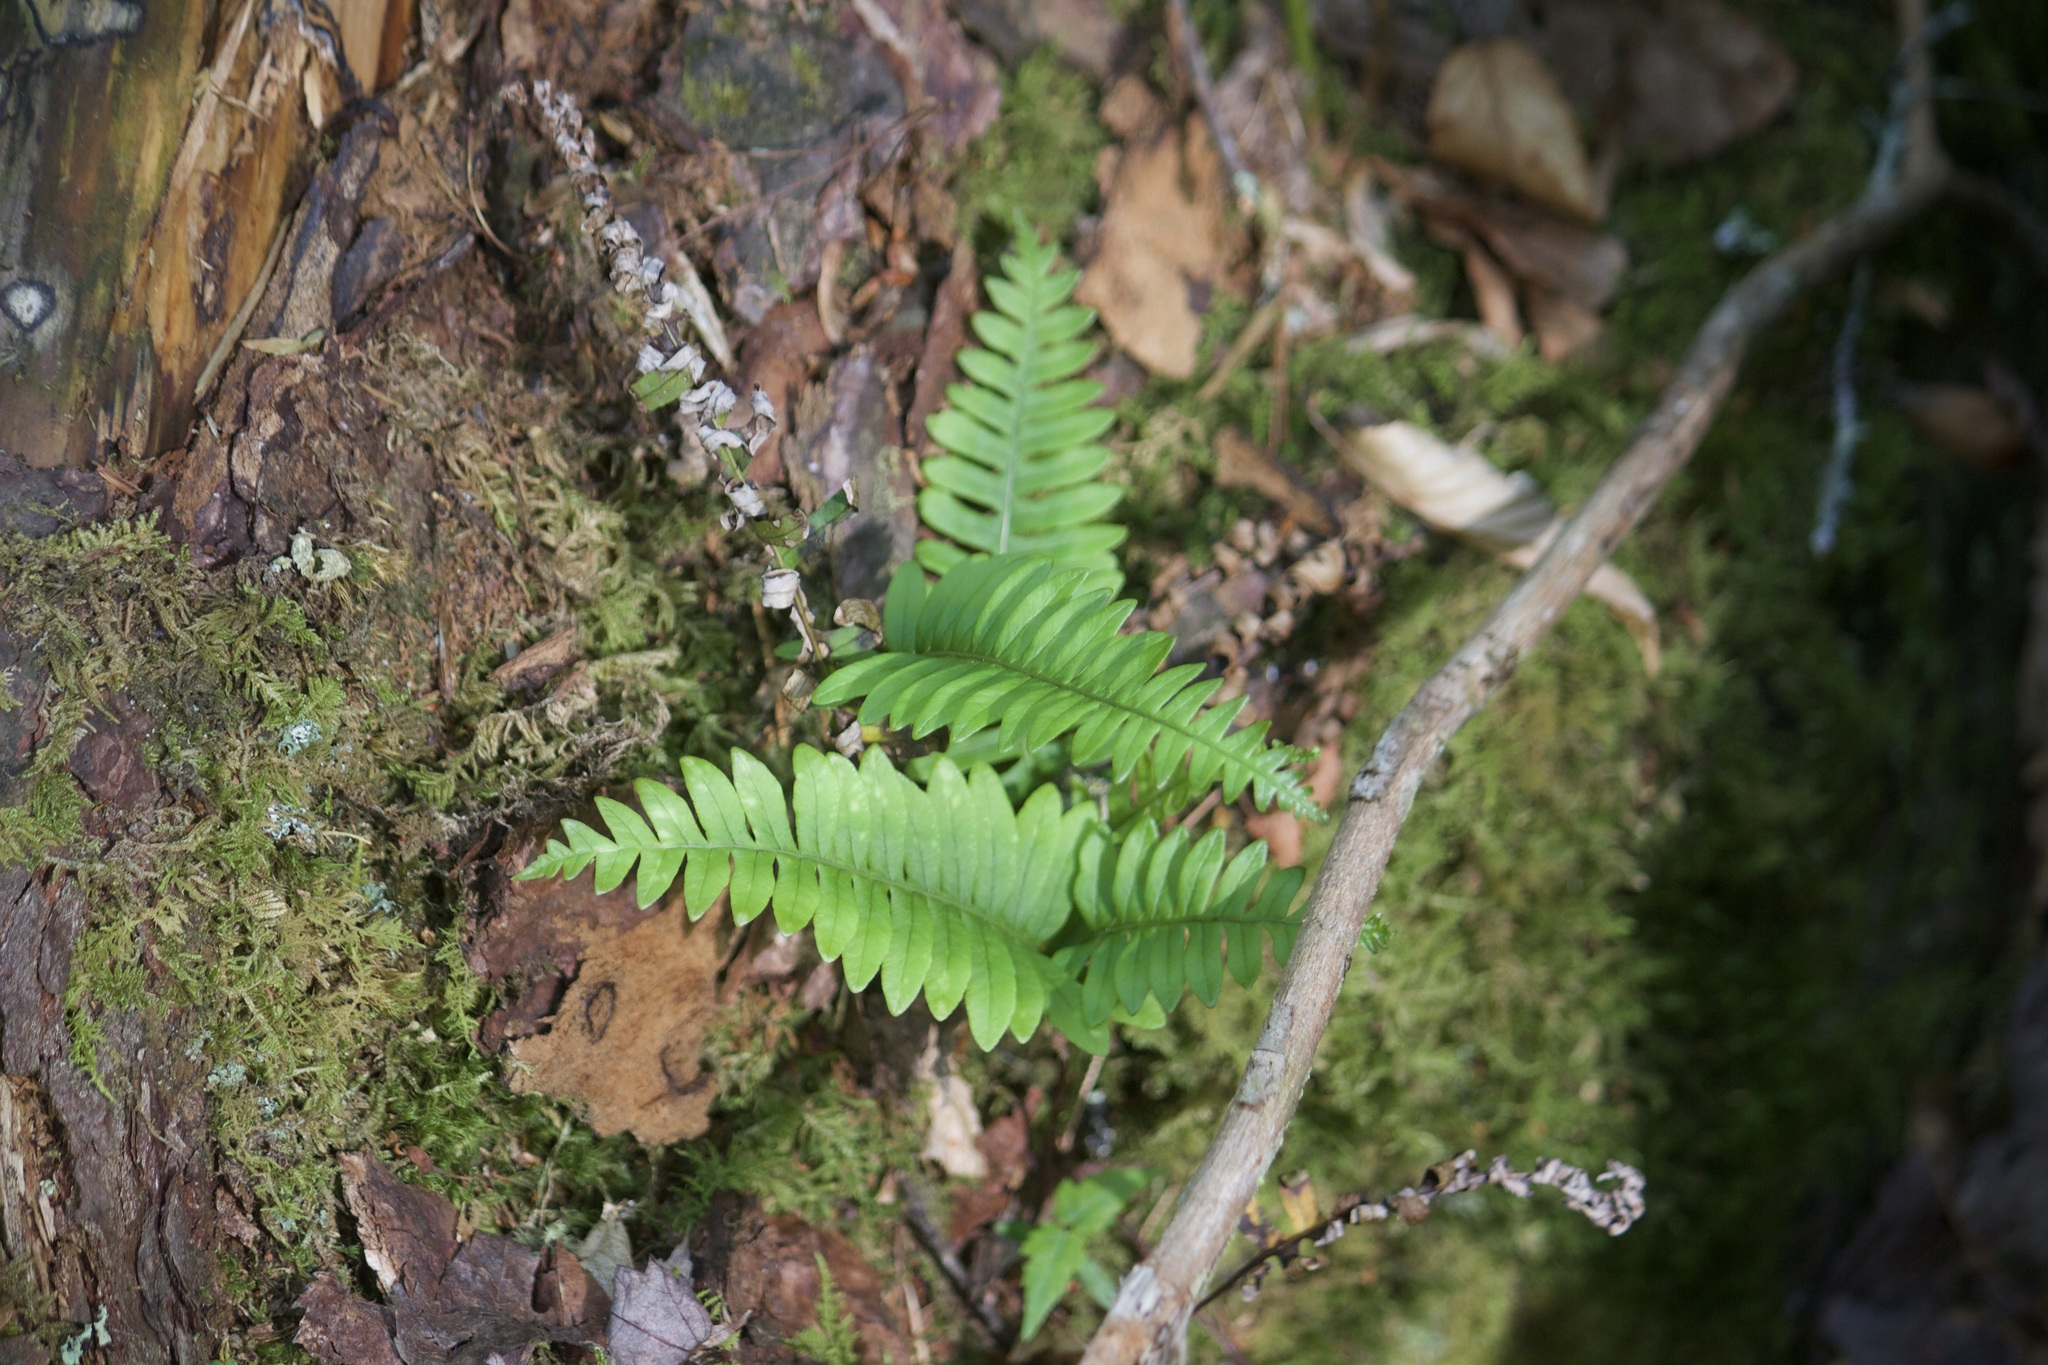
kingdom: Plantae
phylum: Tracheophyta
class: Polypodiopsida
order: Polypodiales
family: Polypodiaceae
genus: Polypodium
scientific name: Polypodium virginianum
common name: American wall fern
